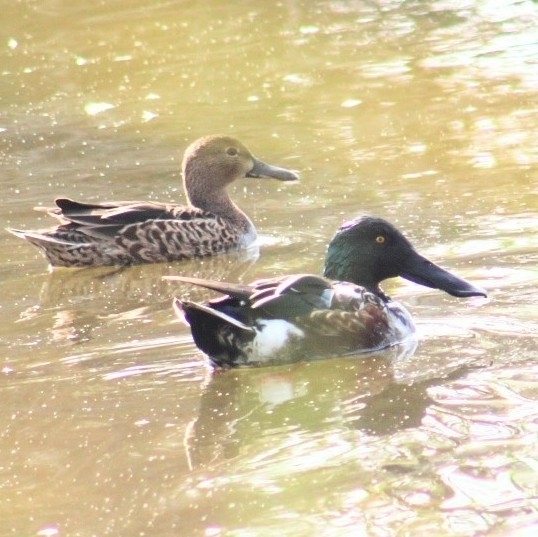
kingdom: Animalia
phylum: Chordata
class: Aves
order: Anseriformes
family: Anatidae
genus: Spatula
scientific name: Spatula clypeata
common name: Northern shoveler
